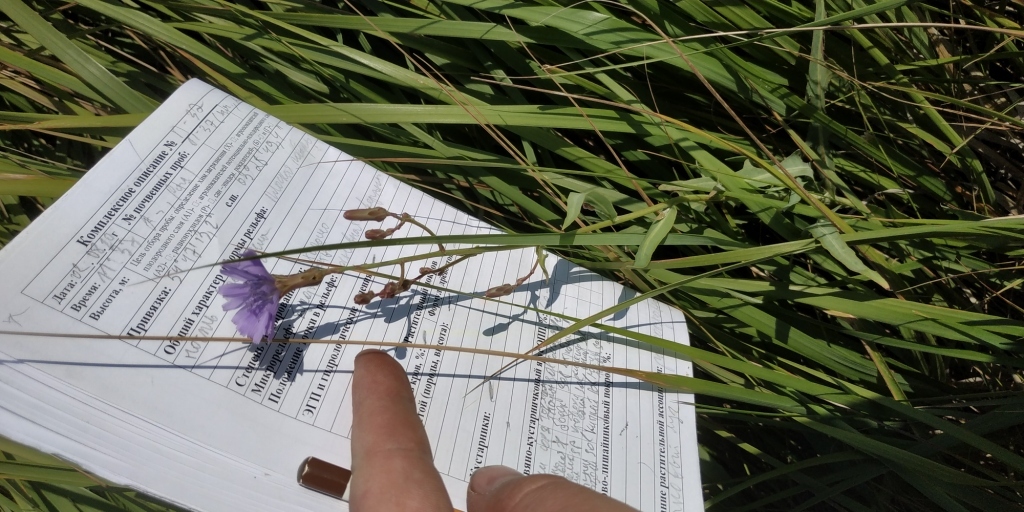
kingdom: Plantae
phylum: Tracheophyta
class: Magnoliopsida
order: Asterales
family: Asteraceae
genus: Lactuca
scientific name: Lactuca tatarica
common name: Blue lettuce
